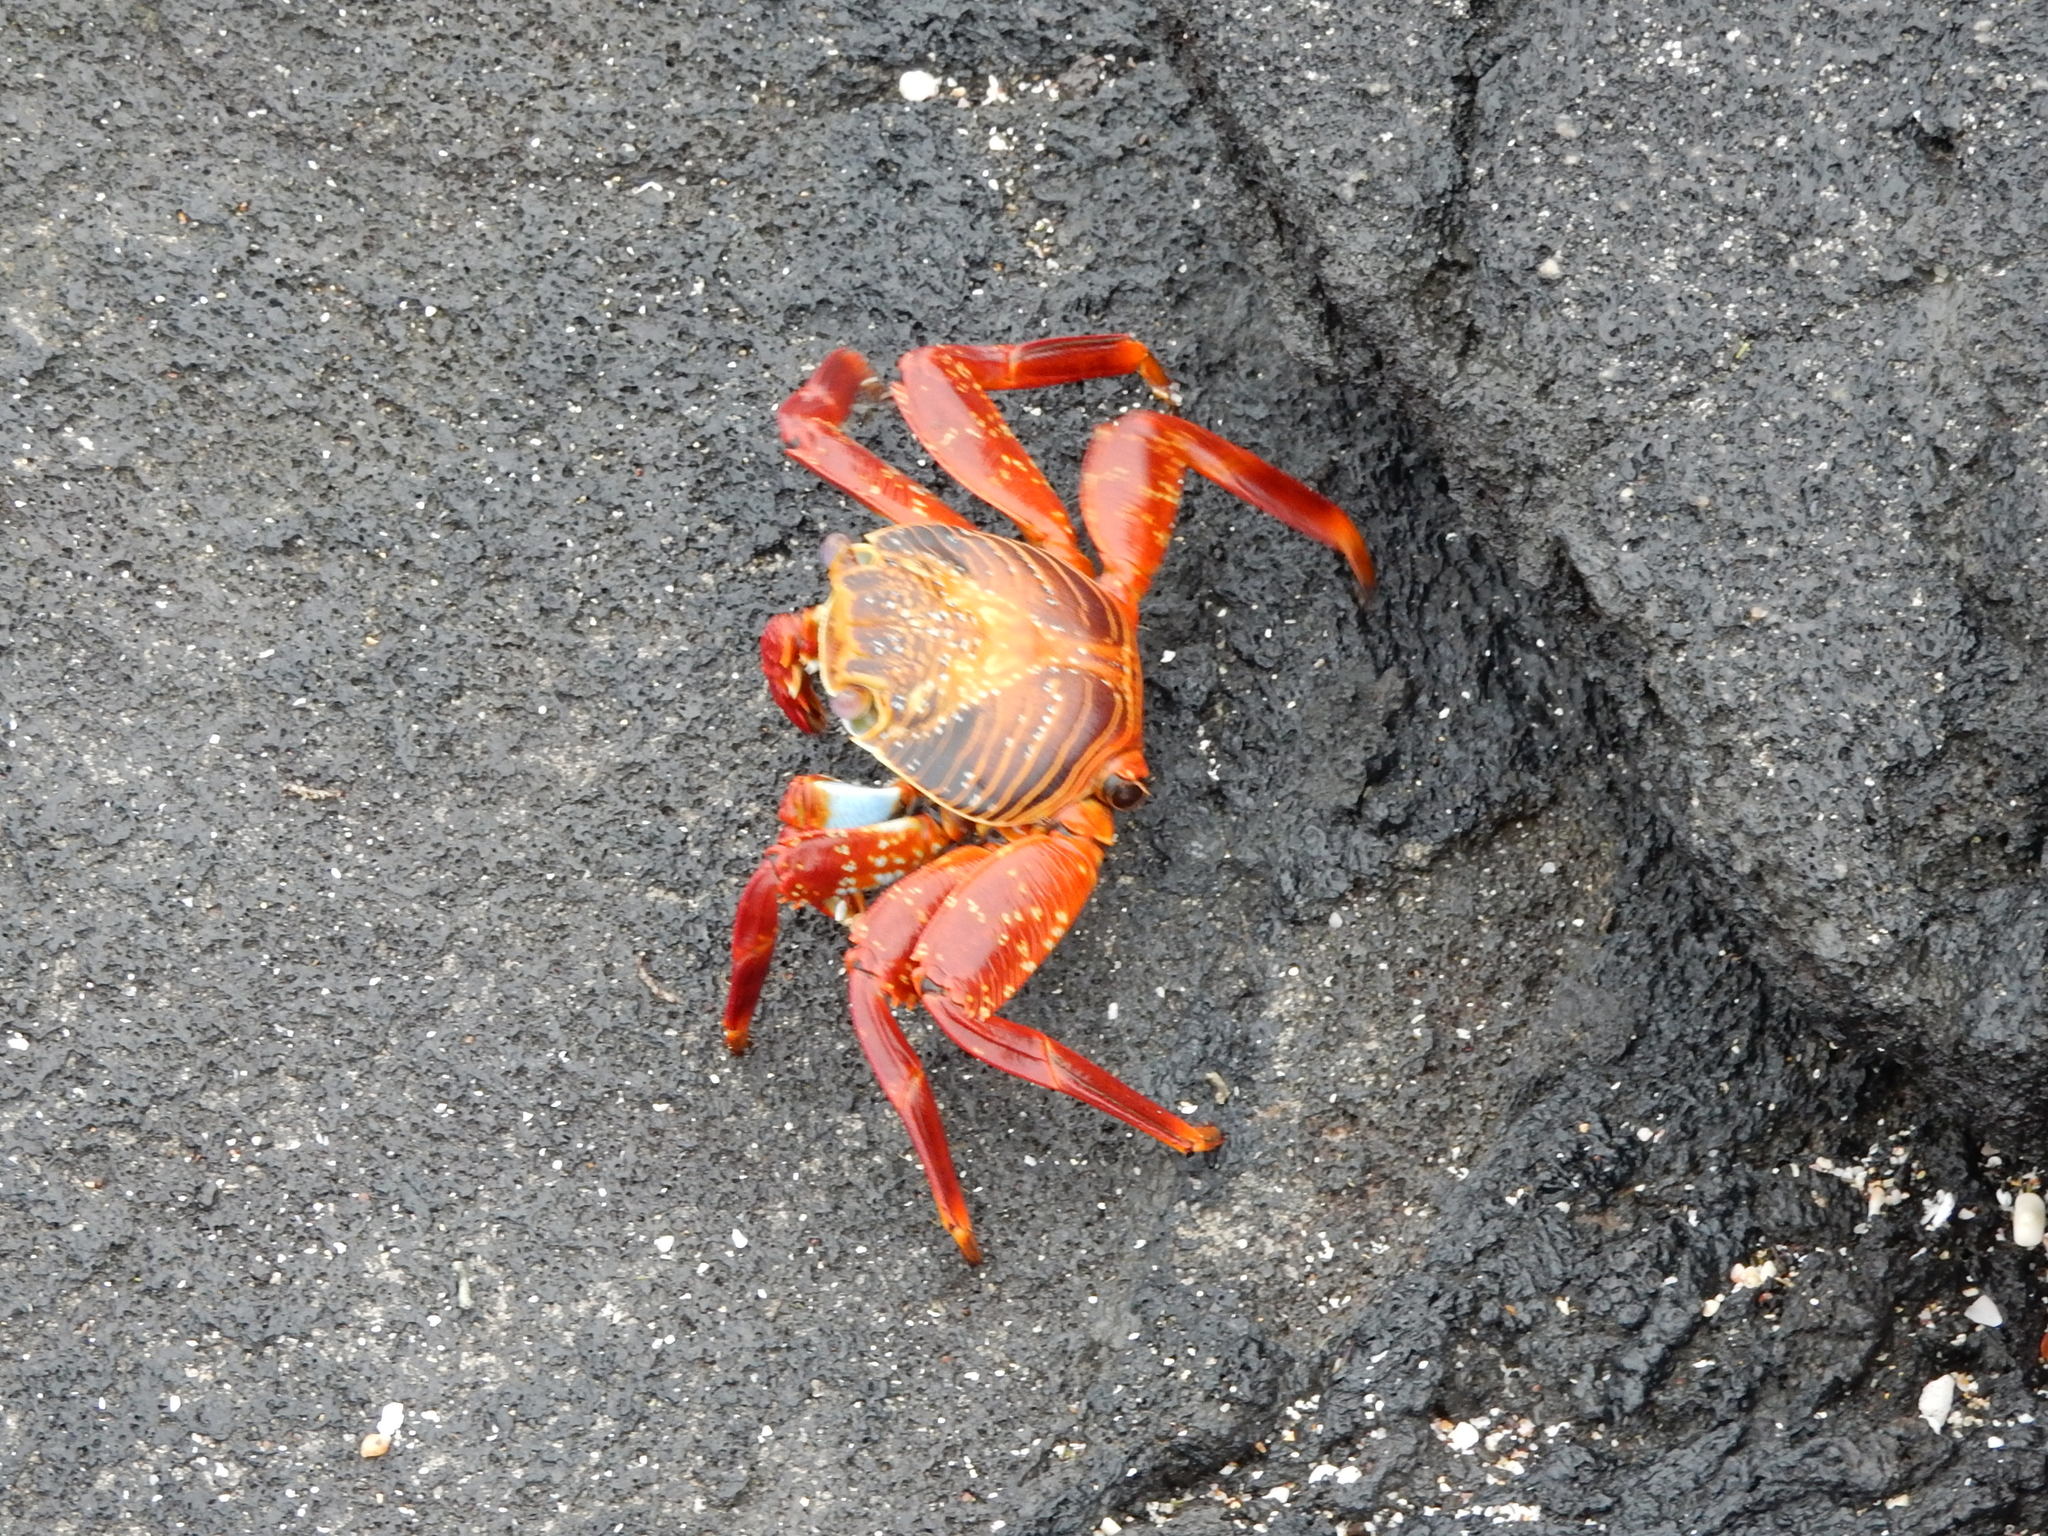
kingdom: Animalia
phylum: Arthropoda
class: Malacostraca
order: Decapoda
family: Grapsidae
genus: Grapsus
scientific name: Grapsus grapsus
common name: Sally lightfoot
